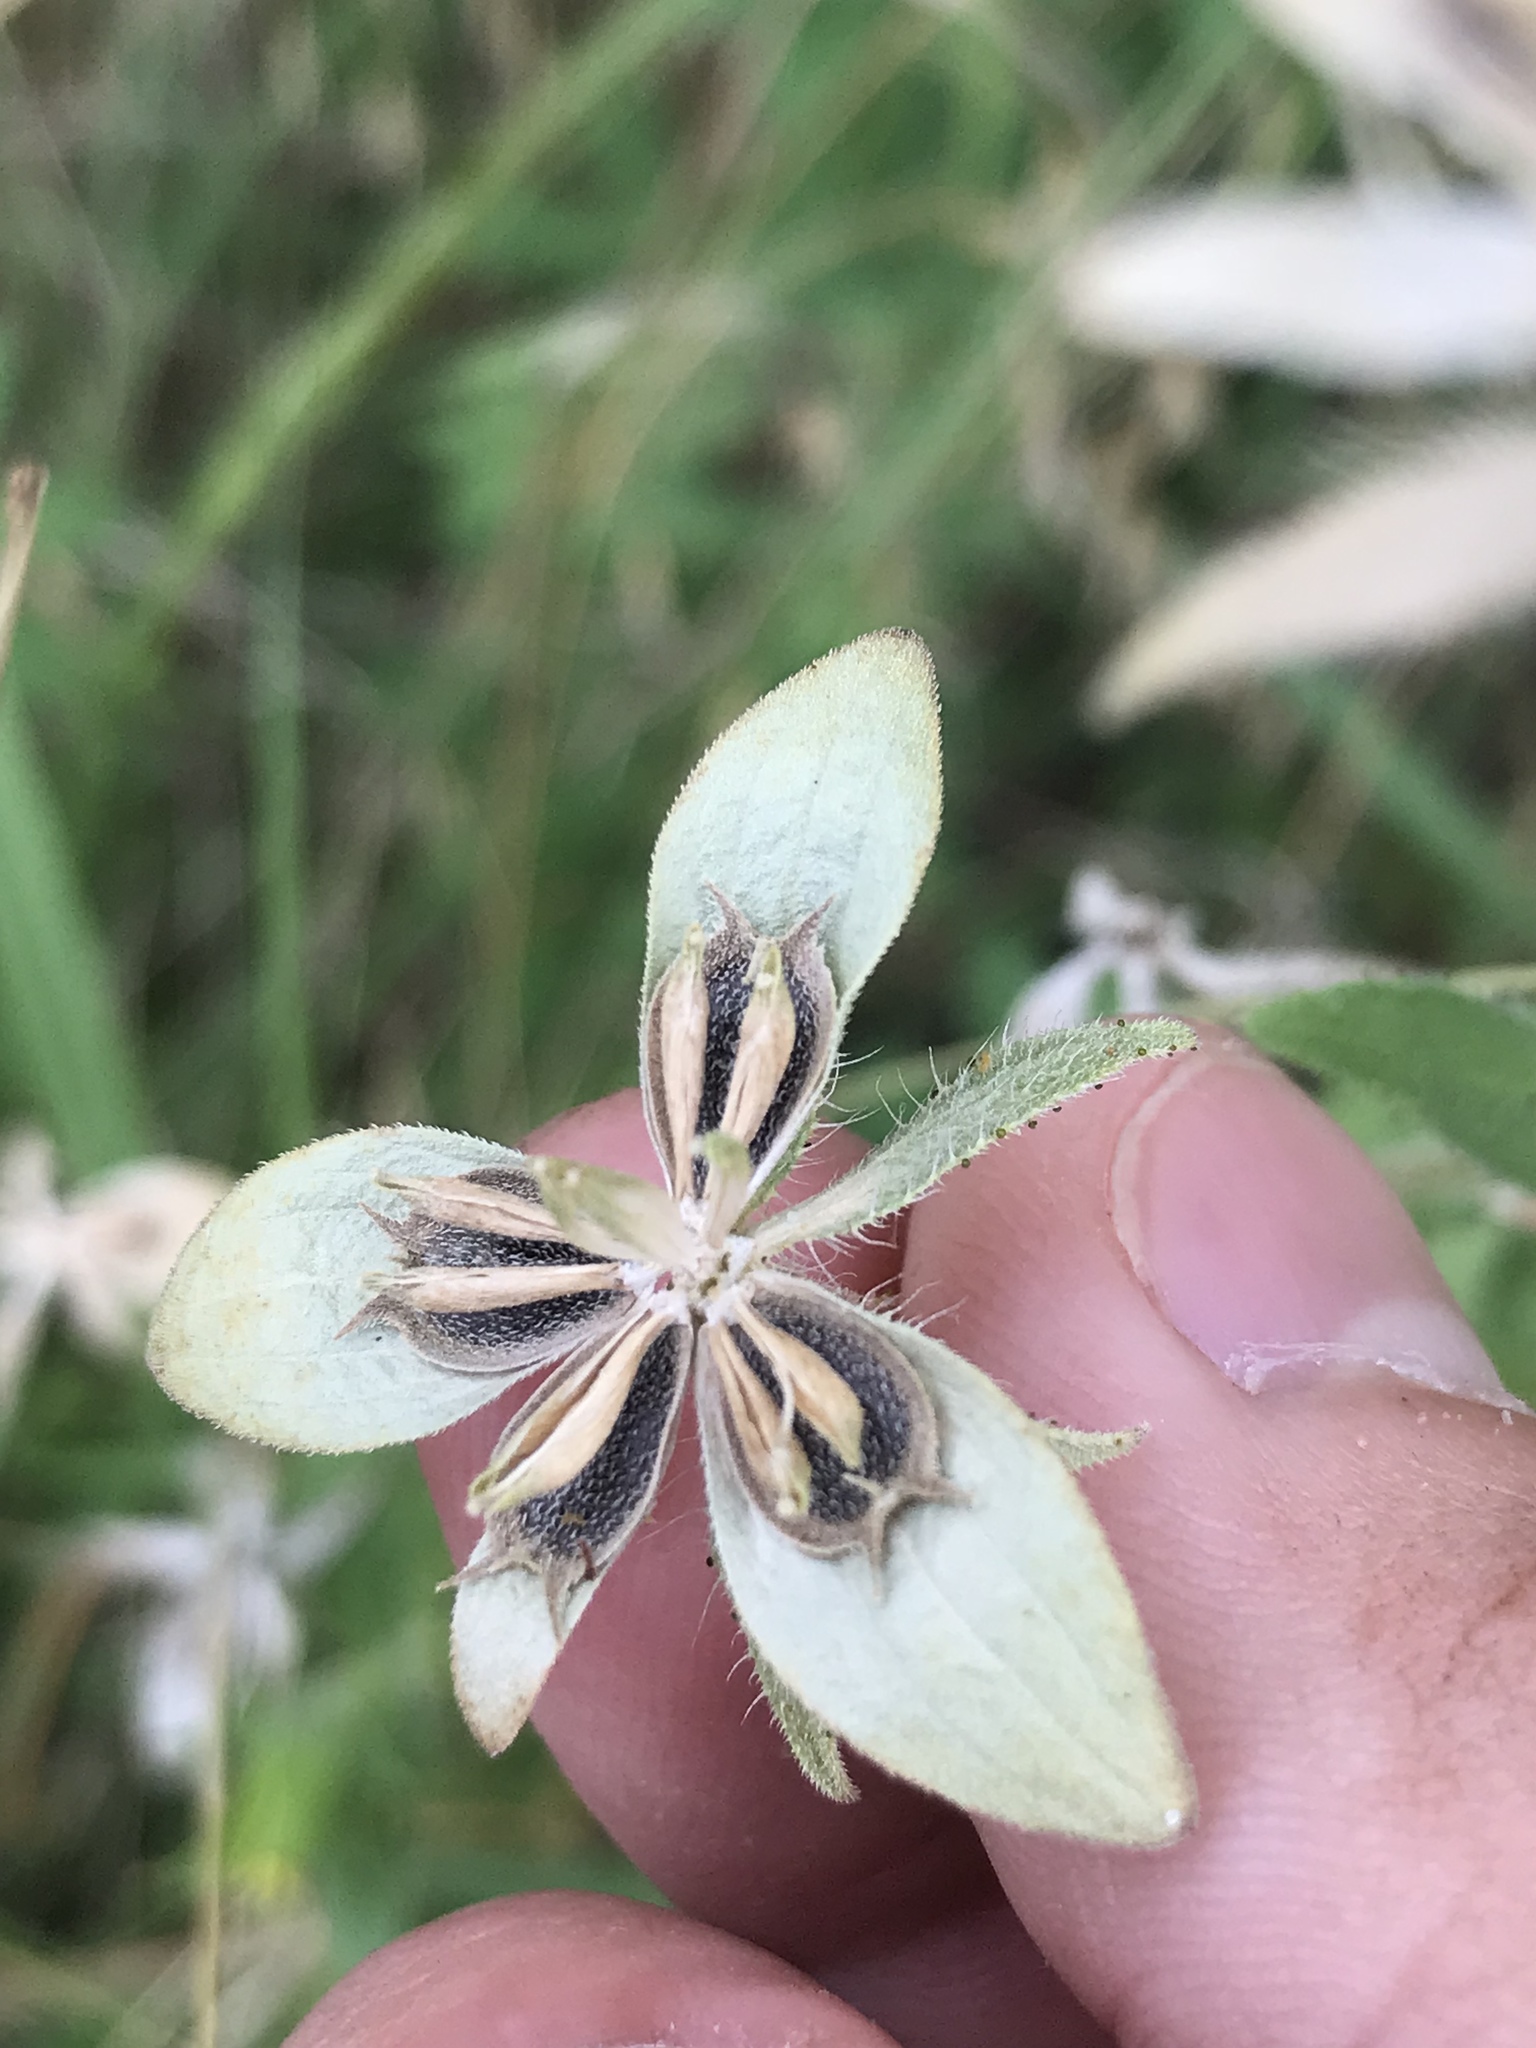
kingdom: Plantae
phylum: Tracheophyta
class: Magnoliopsida
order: Asterales
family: Asteraceae
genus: Lindheimera
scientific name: Lindheimera texana
